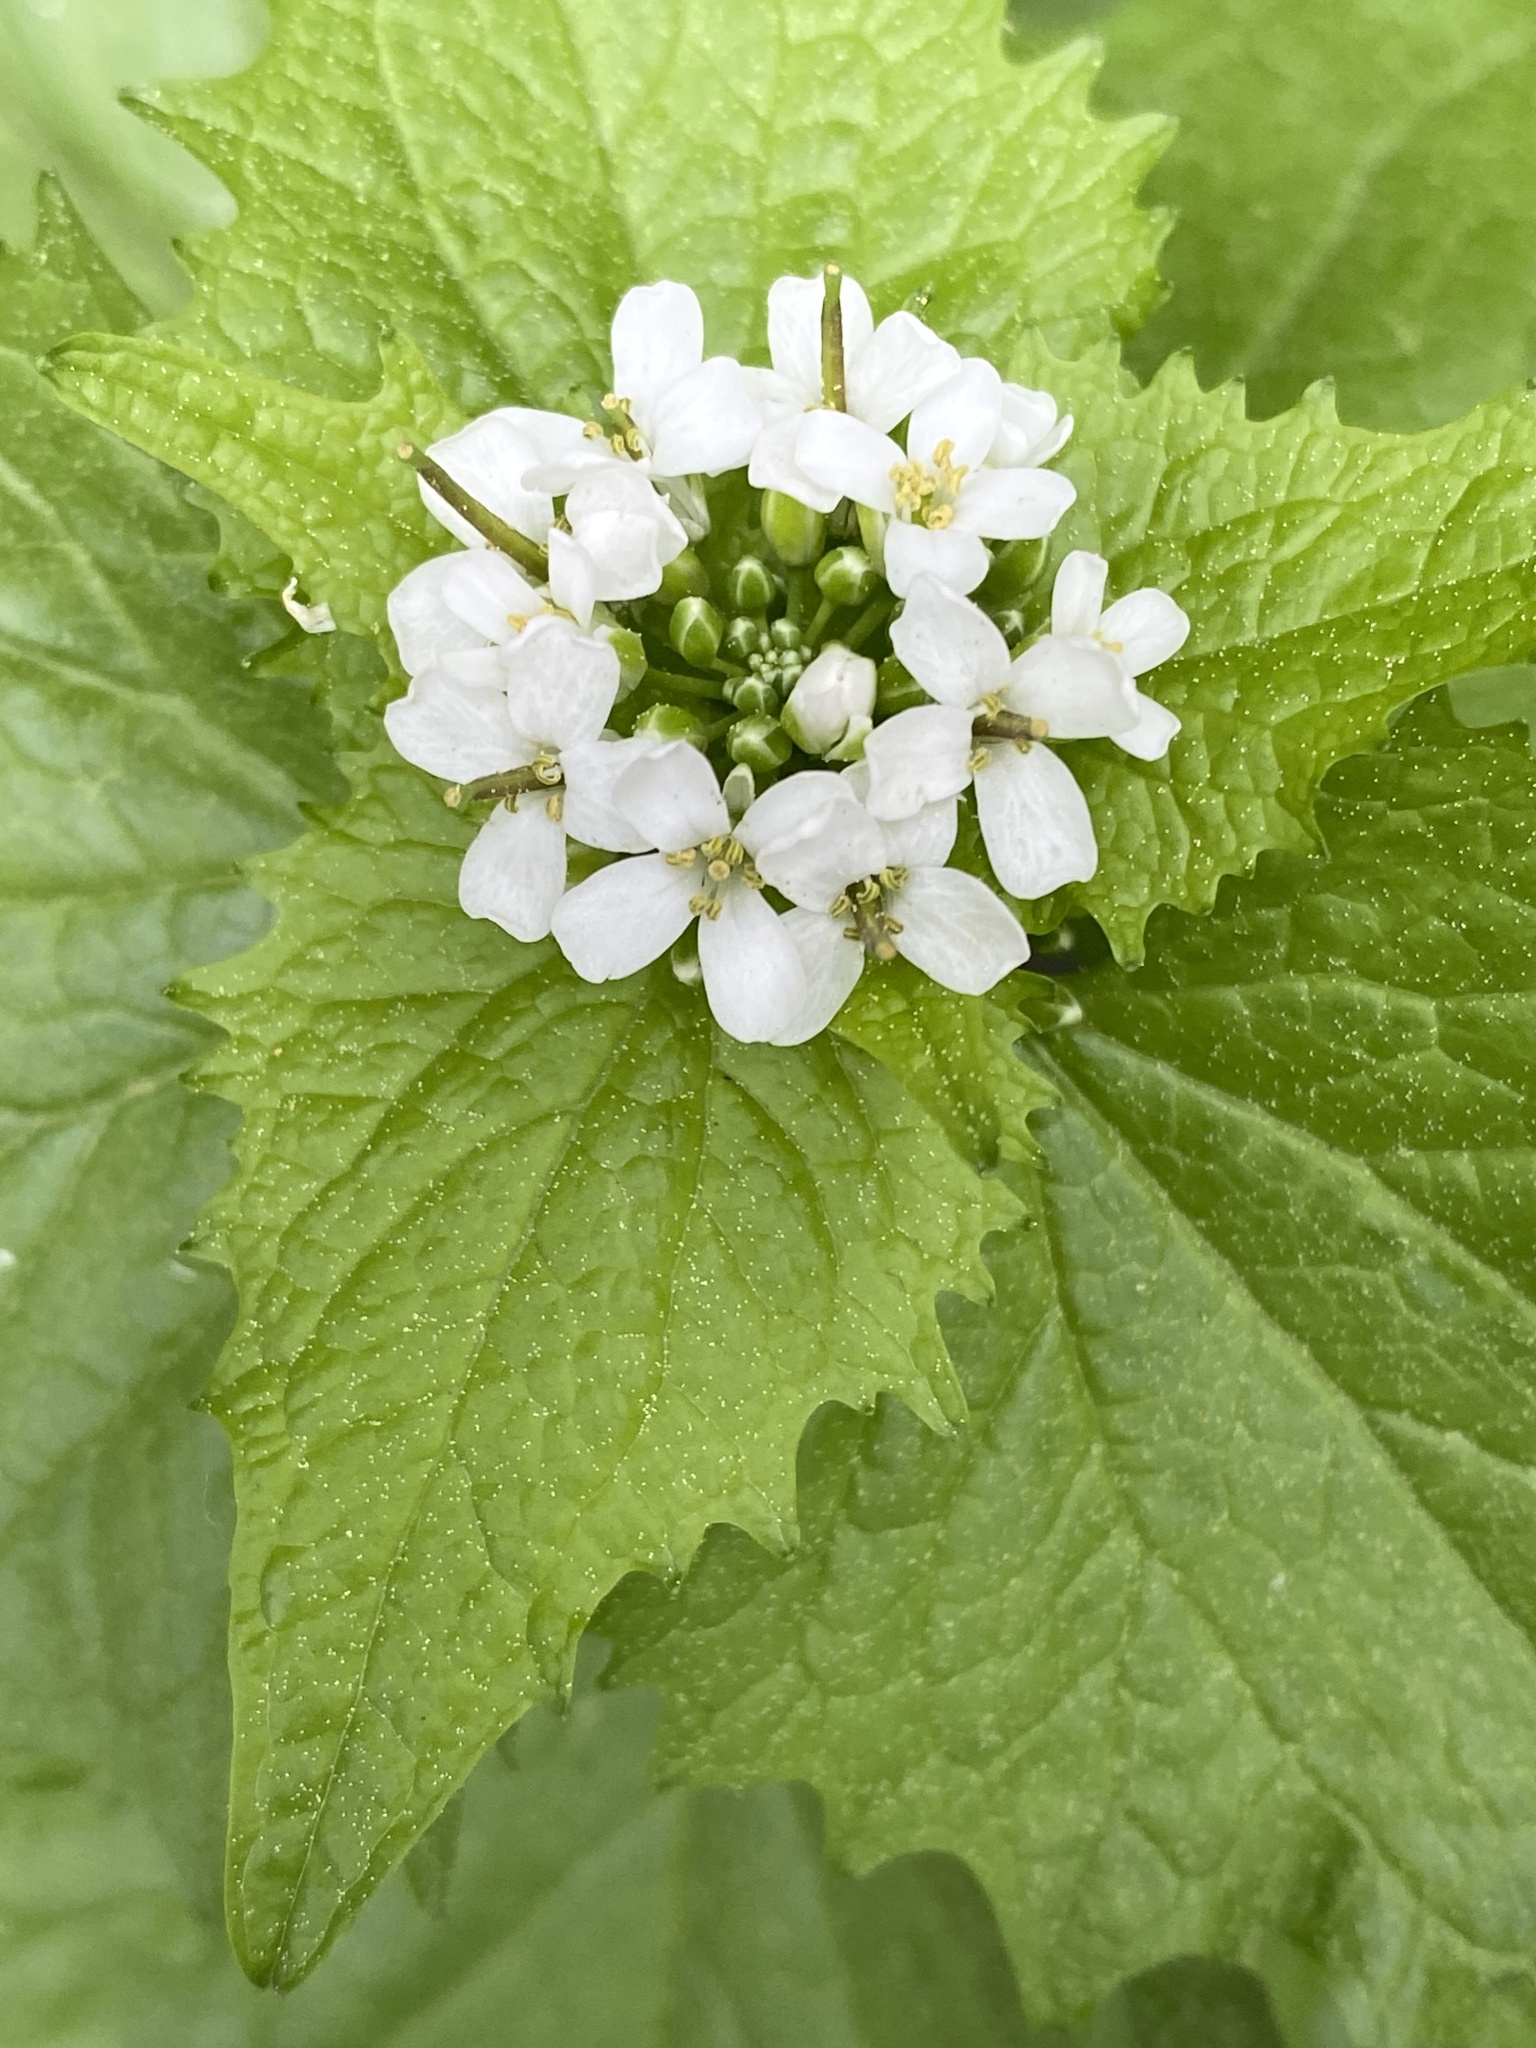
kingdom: Plantae
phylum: Tracheophyta
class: Magnoliopsida
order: Brassicales
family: Brassicaceae
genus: Alliaria
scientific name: Alliaria petiolata
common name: Garlic mustard
